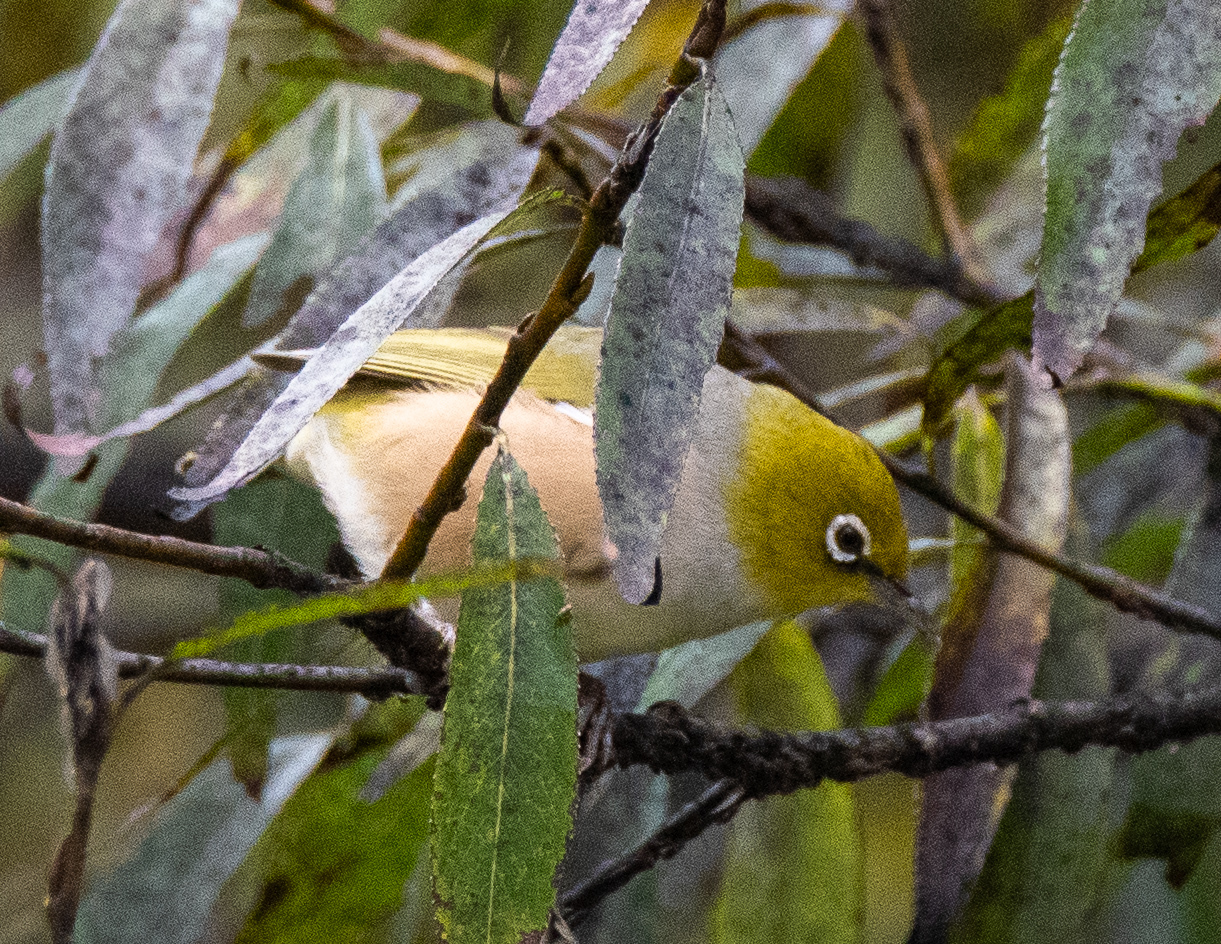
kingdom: Animalia
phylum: Chordata
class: Aves
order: Passeriformes
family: Zosteropidae
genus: Zosterops
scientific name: Zosterops lateralis
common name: Silvereye
